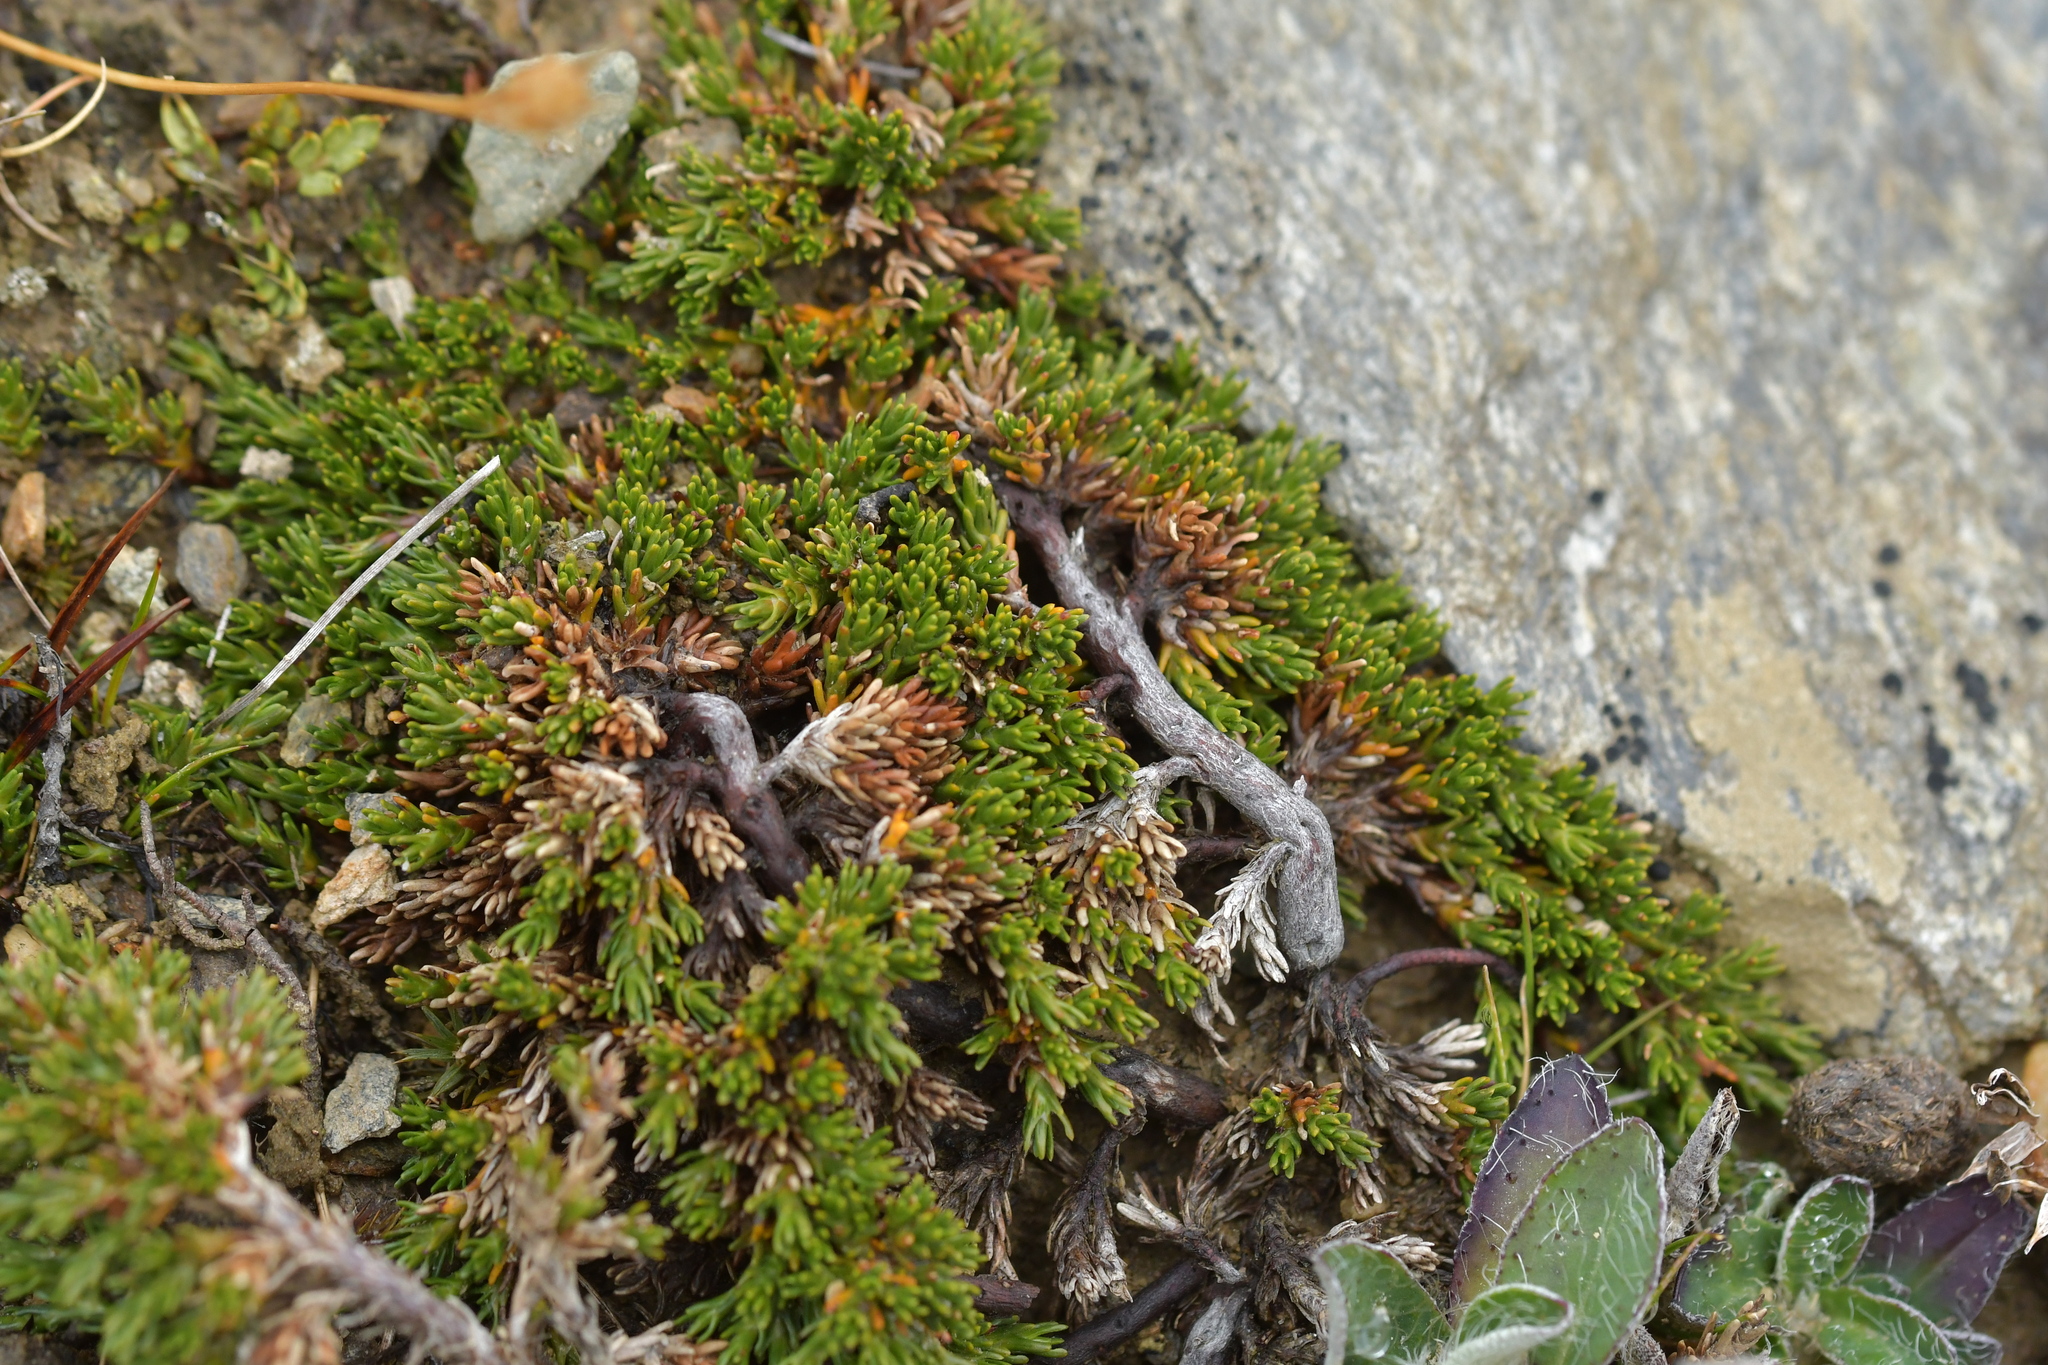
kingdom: Plantae
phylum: Tracheophyta
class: Magnoliopsida
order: Ericales
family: Ericaceae
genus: Dracophyllum
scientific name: Dracophyllum muscoides
